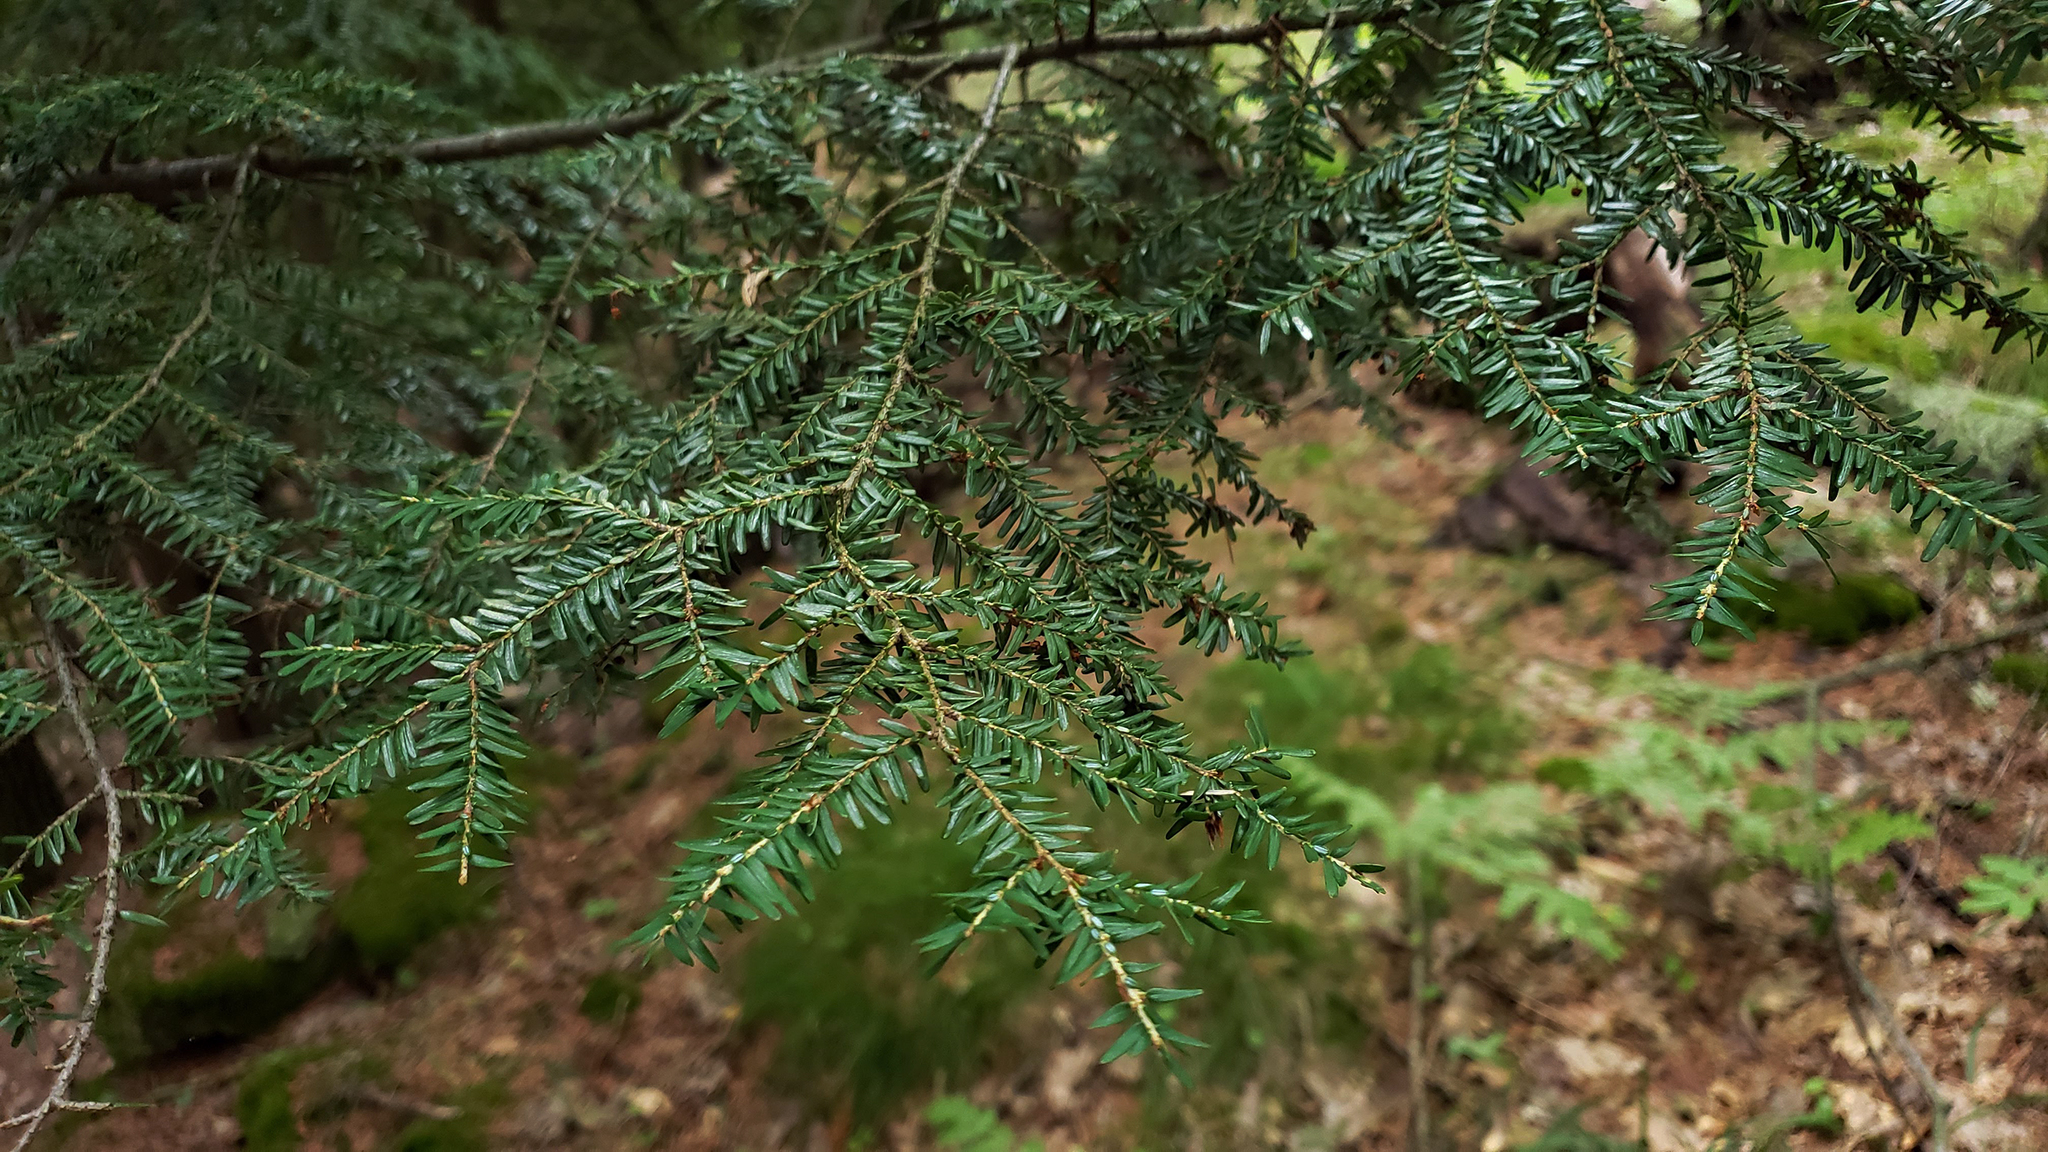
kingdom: Plantae
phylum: Tracheophyta
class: Pinopsida
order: Pinales
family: Pinaceae
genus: Tsuga
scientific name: Tsuga canadensis
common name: Eastern hemlock
